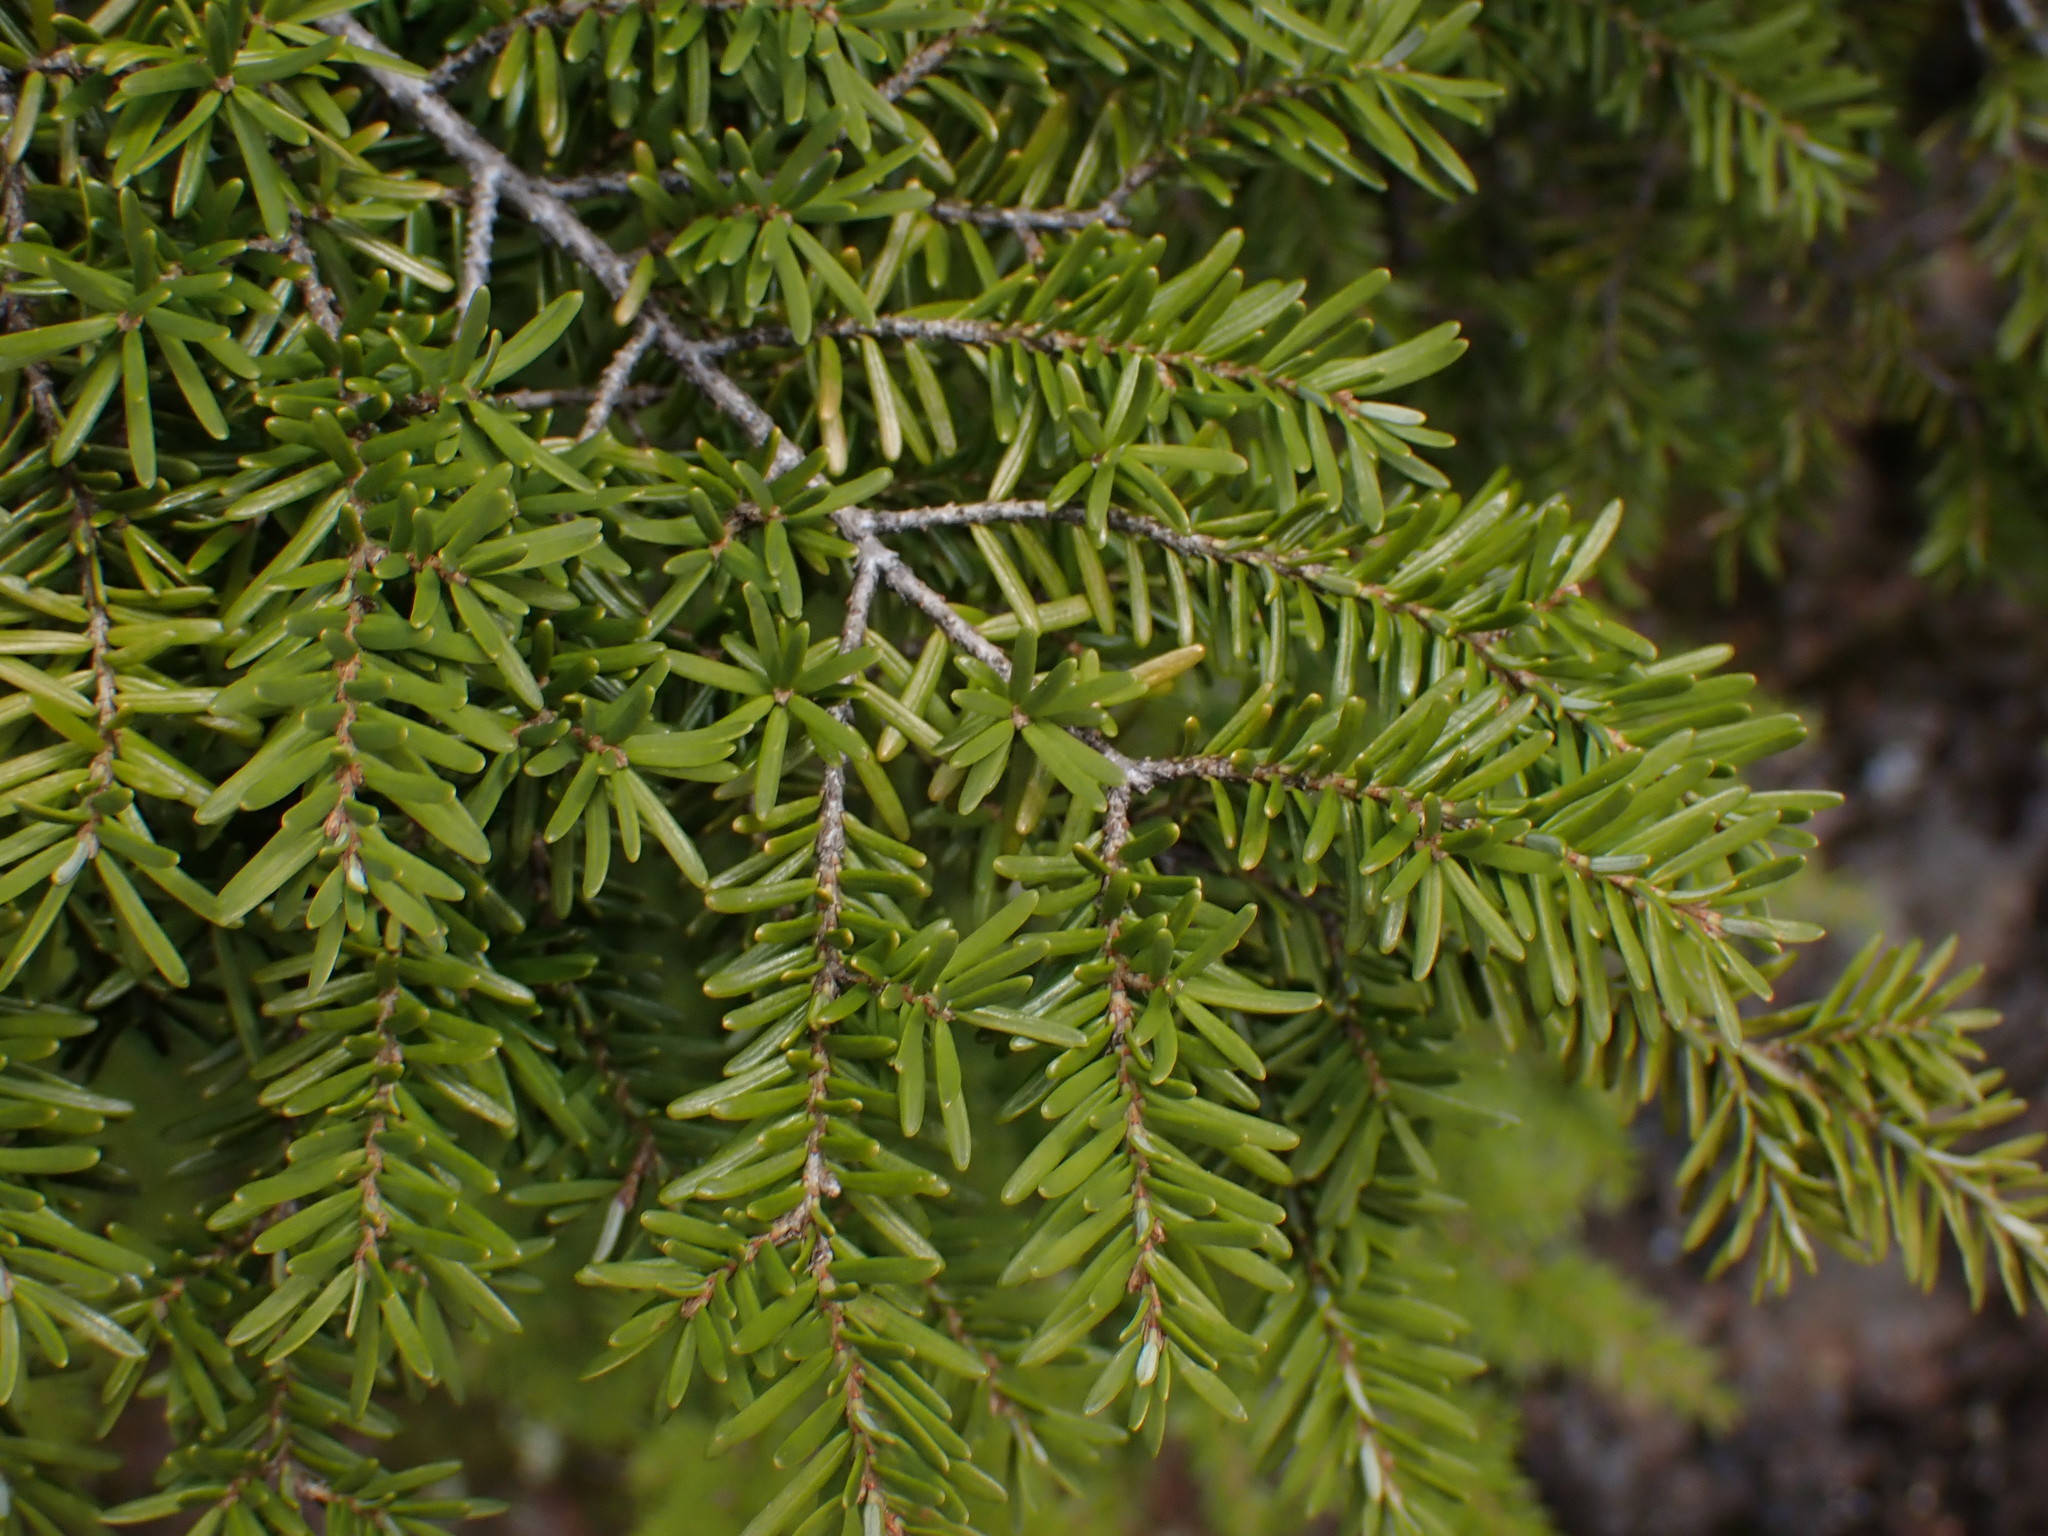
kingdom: Plantae
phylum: Tracheophyta
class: Pinopsida
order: Pinales
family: Pinaceae
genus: Tsuga
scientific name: Tsuga heterophylla
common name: Western hemlock
